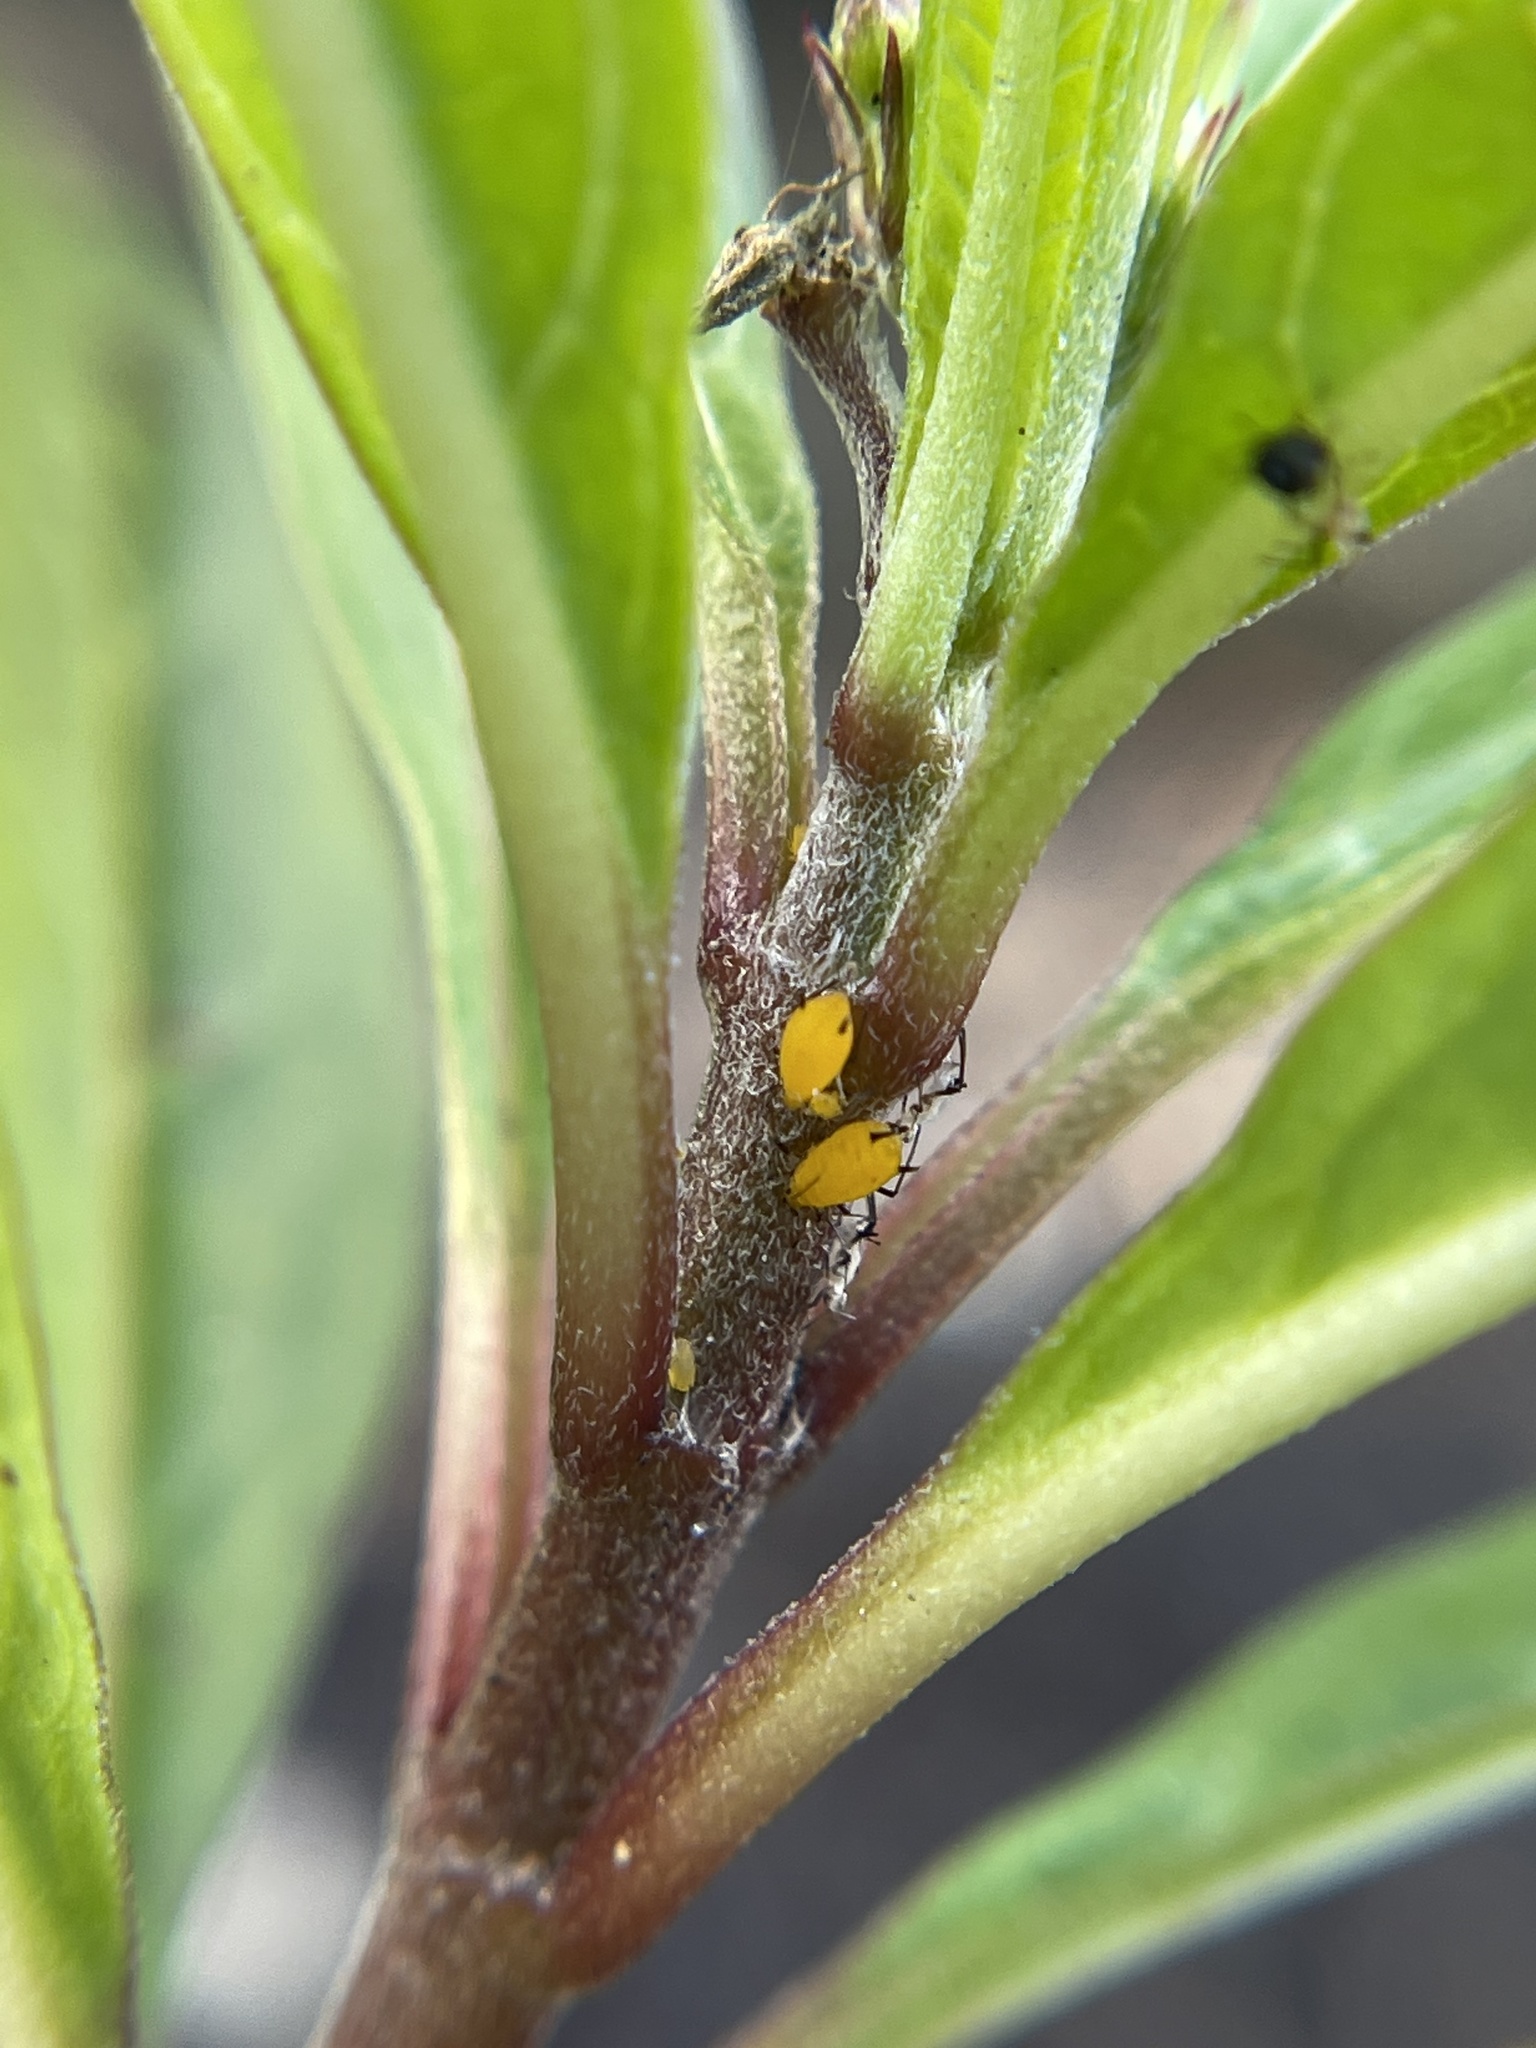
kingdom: Animalia
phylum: Arthropoda
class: Insecta
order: Hemiptera
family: Aphididae
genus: Aphis
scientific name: Aphis nerii
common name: Oleander aphid
